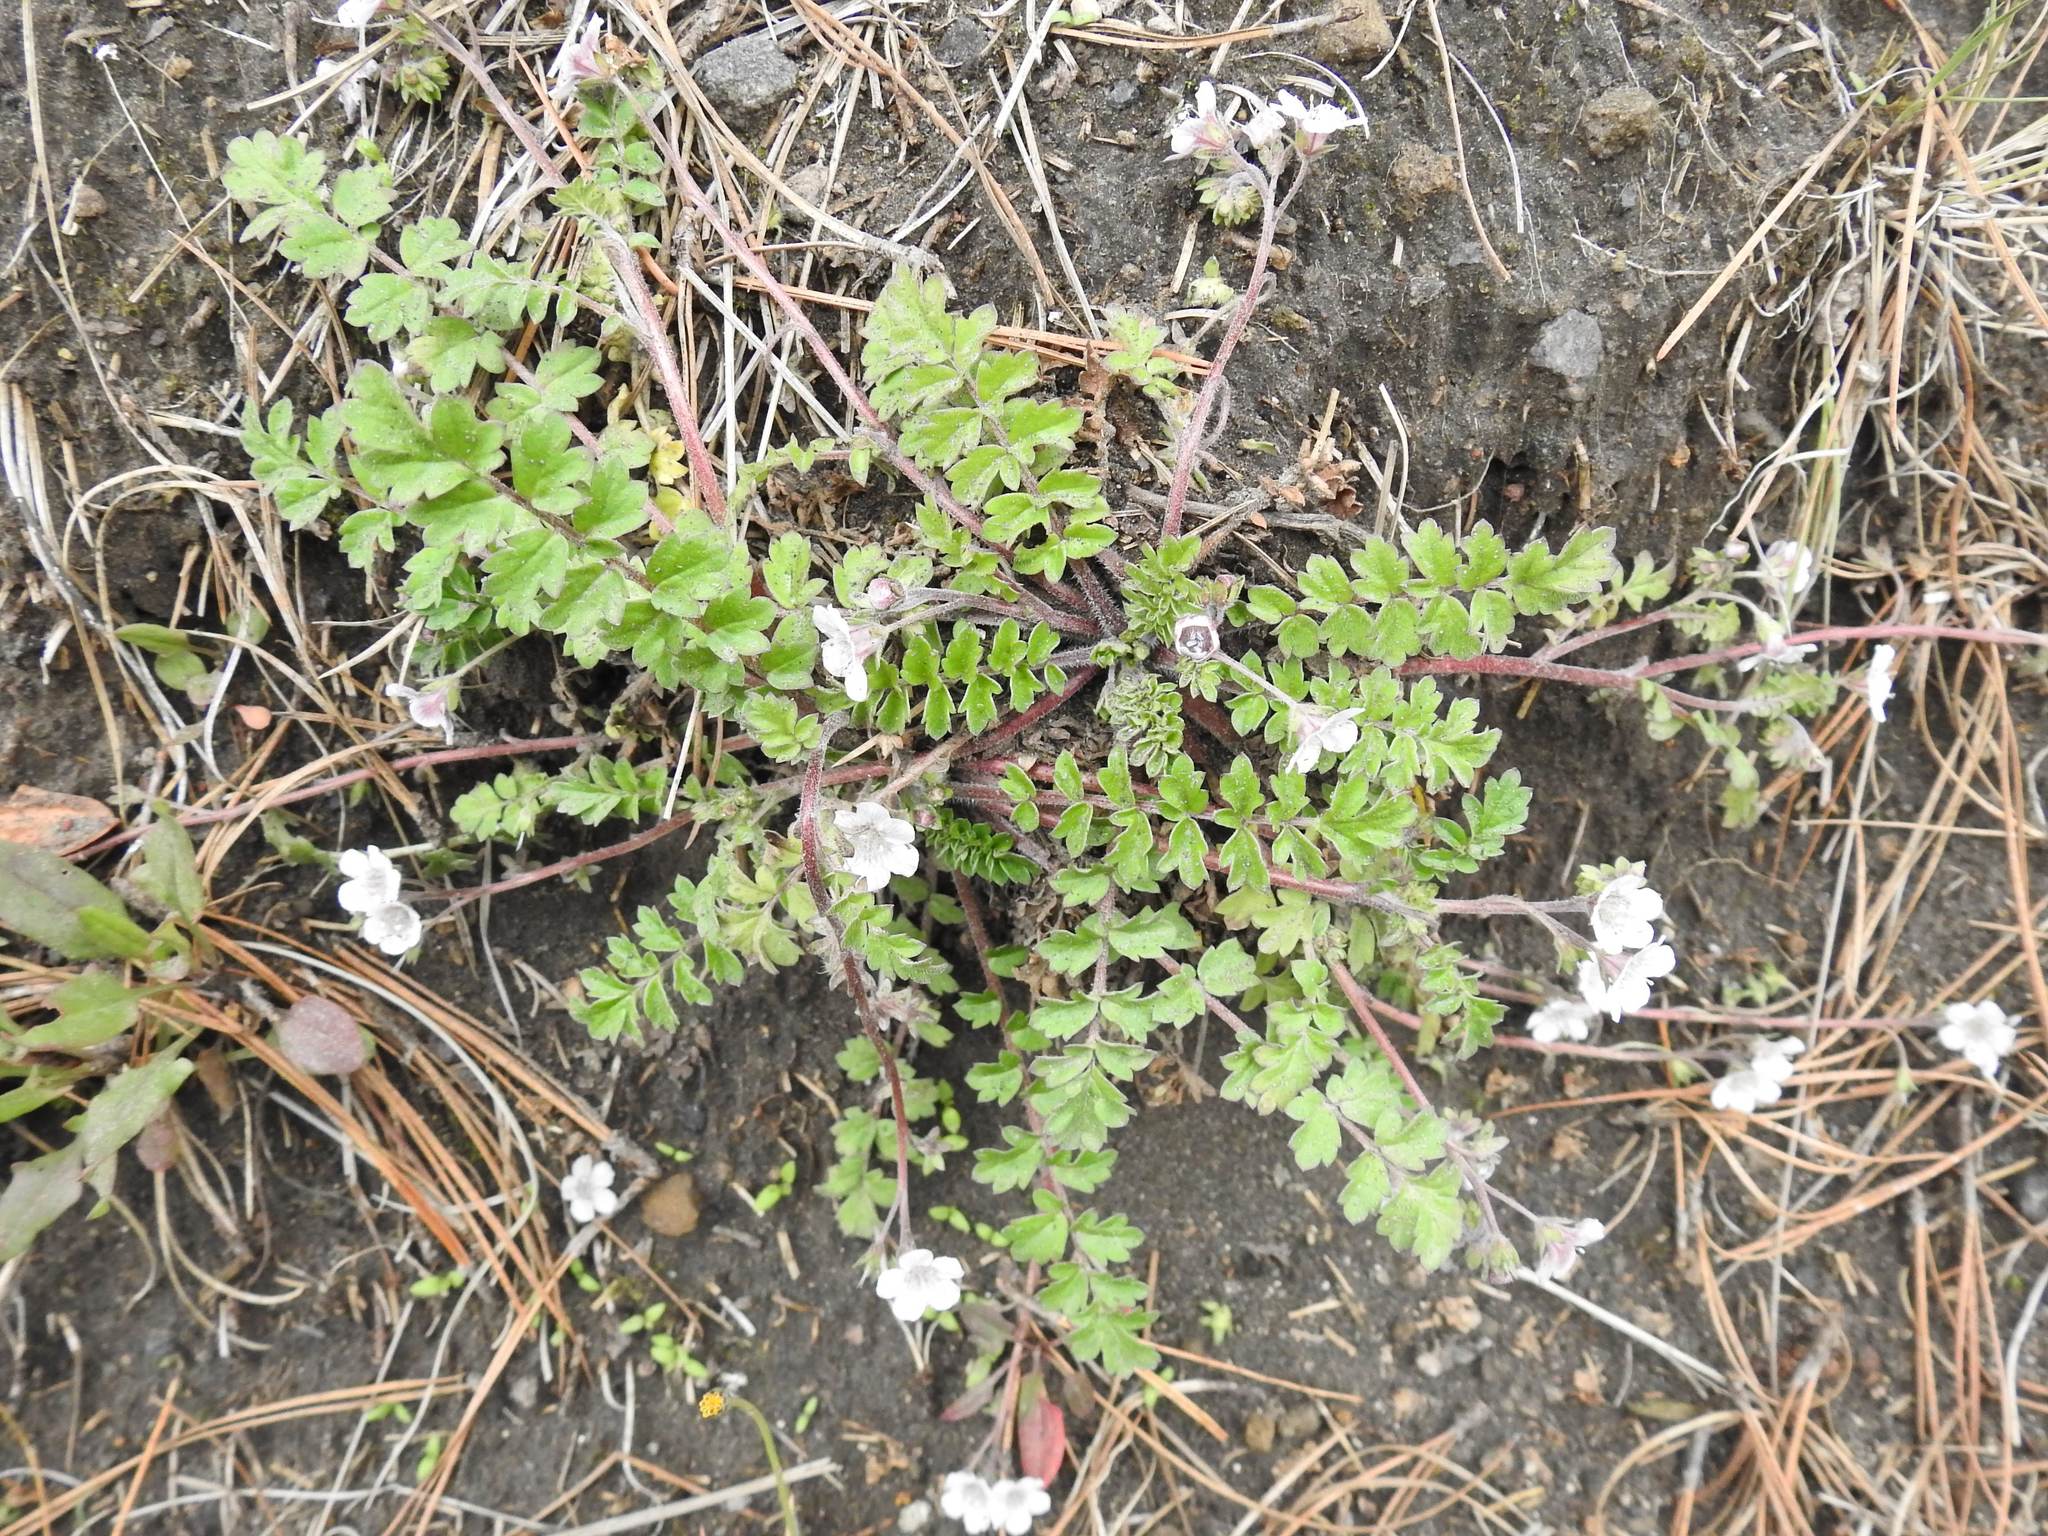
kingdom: Plantae
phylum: Tracheophyta
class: Magnoliopsida
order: Boraginales
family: Hydrophyllaceae
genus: Phacelia
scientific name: Phacelia platycarpa
